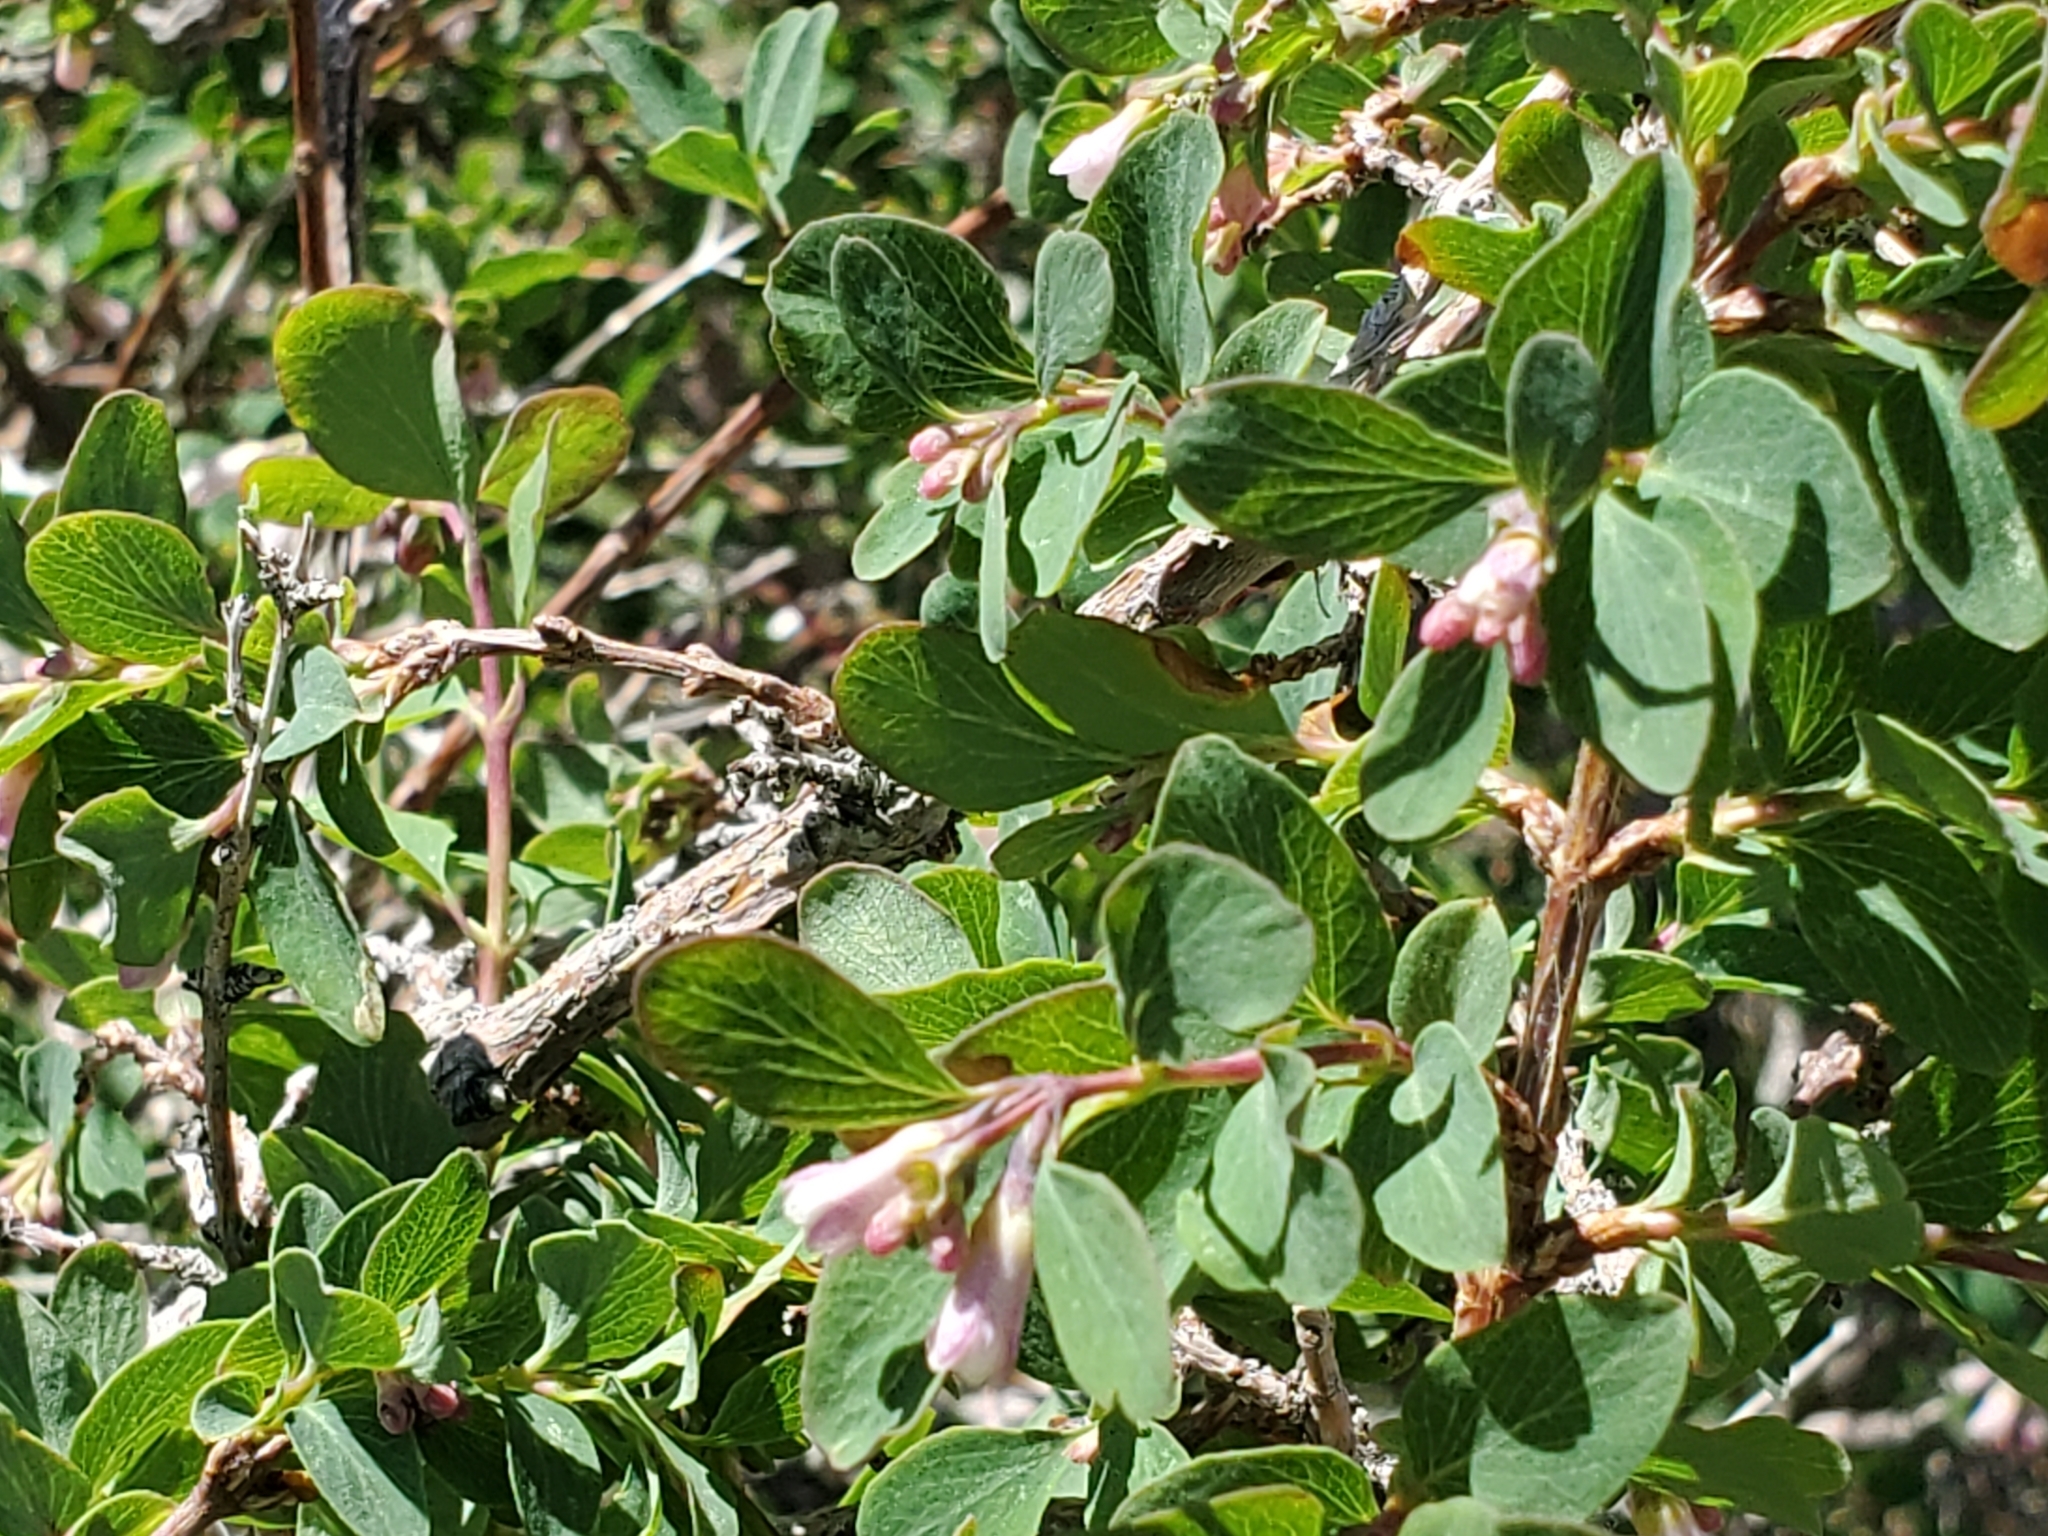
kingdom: Plantae
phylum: Tracheophyta
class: Magnoliopsida
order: Dipsacales
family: Caprifoliaceae
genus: Symphoricarpos
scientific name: Symphoricarpos rotundifolius
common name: Round-leaved snowberry
